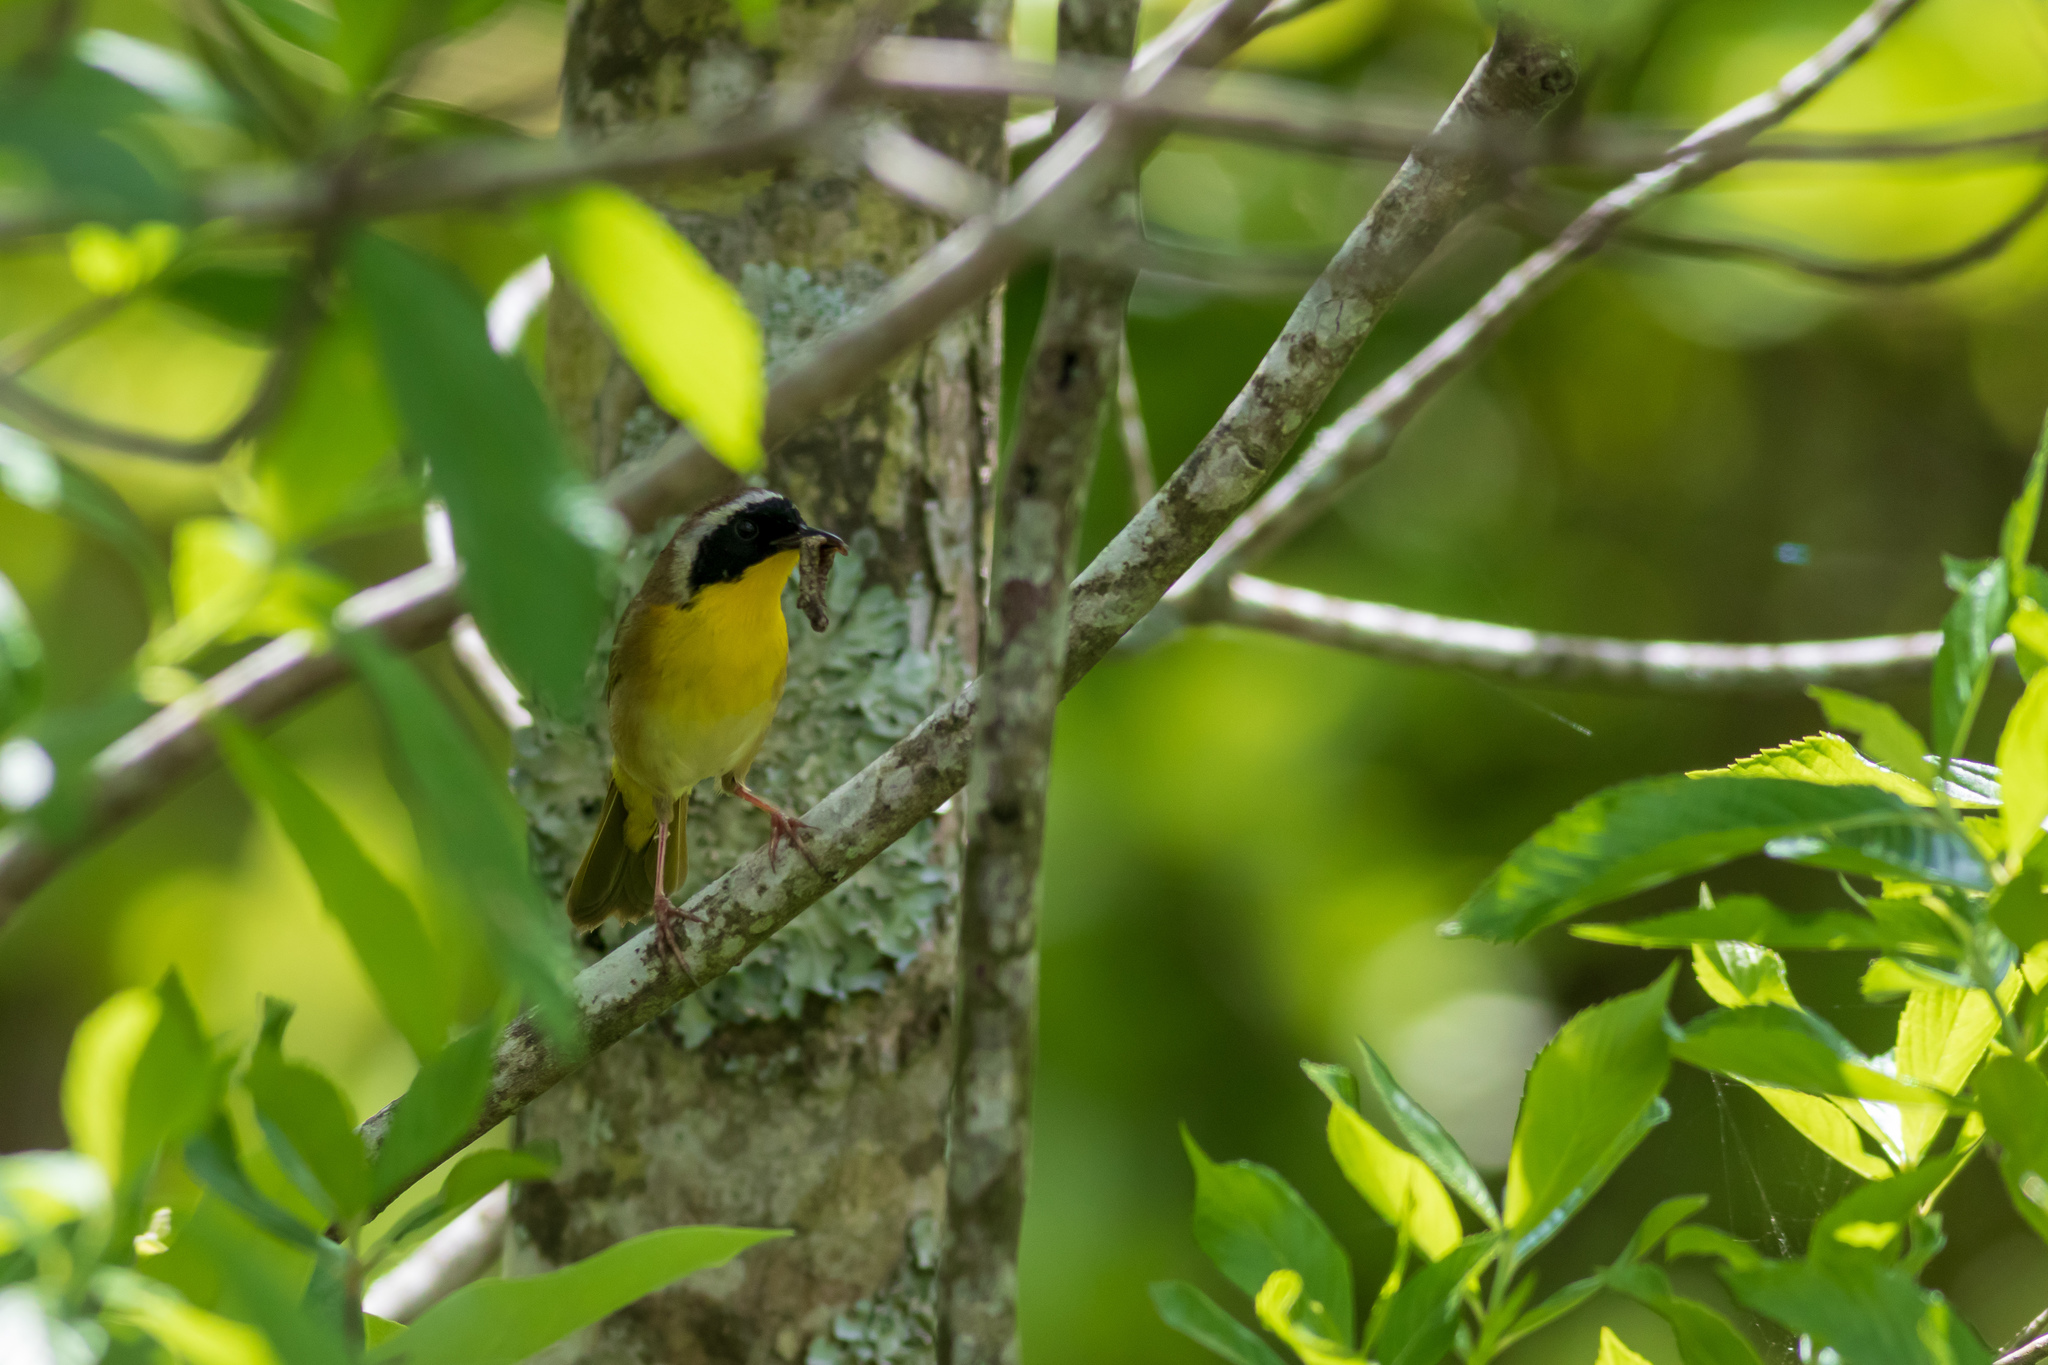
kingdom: Animalia
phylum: Chordata
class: Aves
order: Passeriformes
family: Parulidae
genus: Geothlypis
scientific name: Geothlypis trichas
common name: Common yellowthroat
